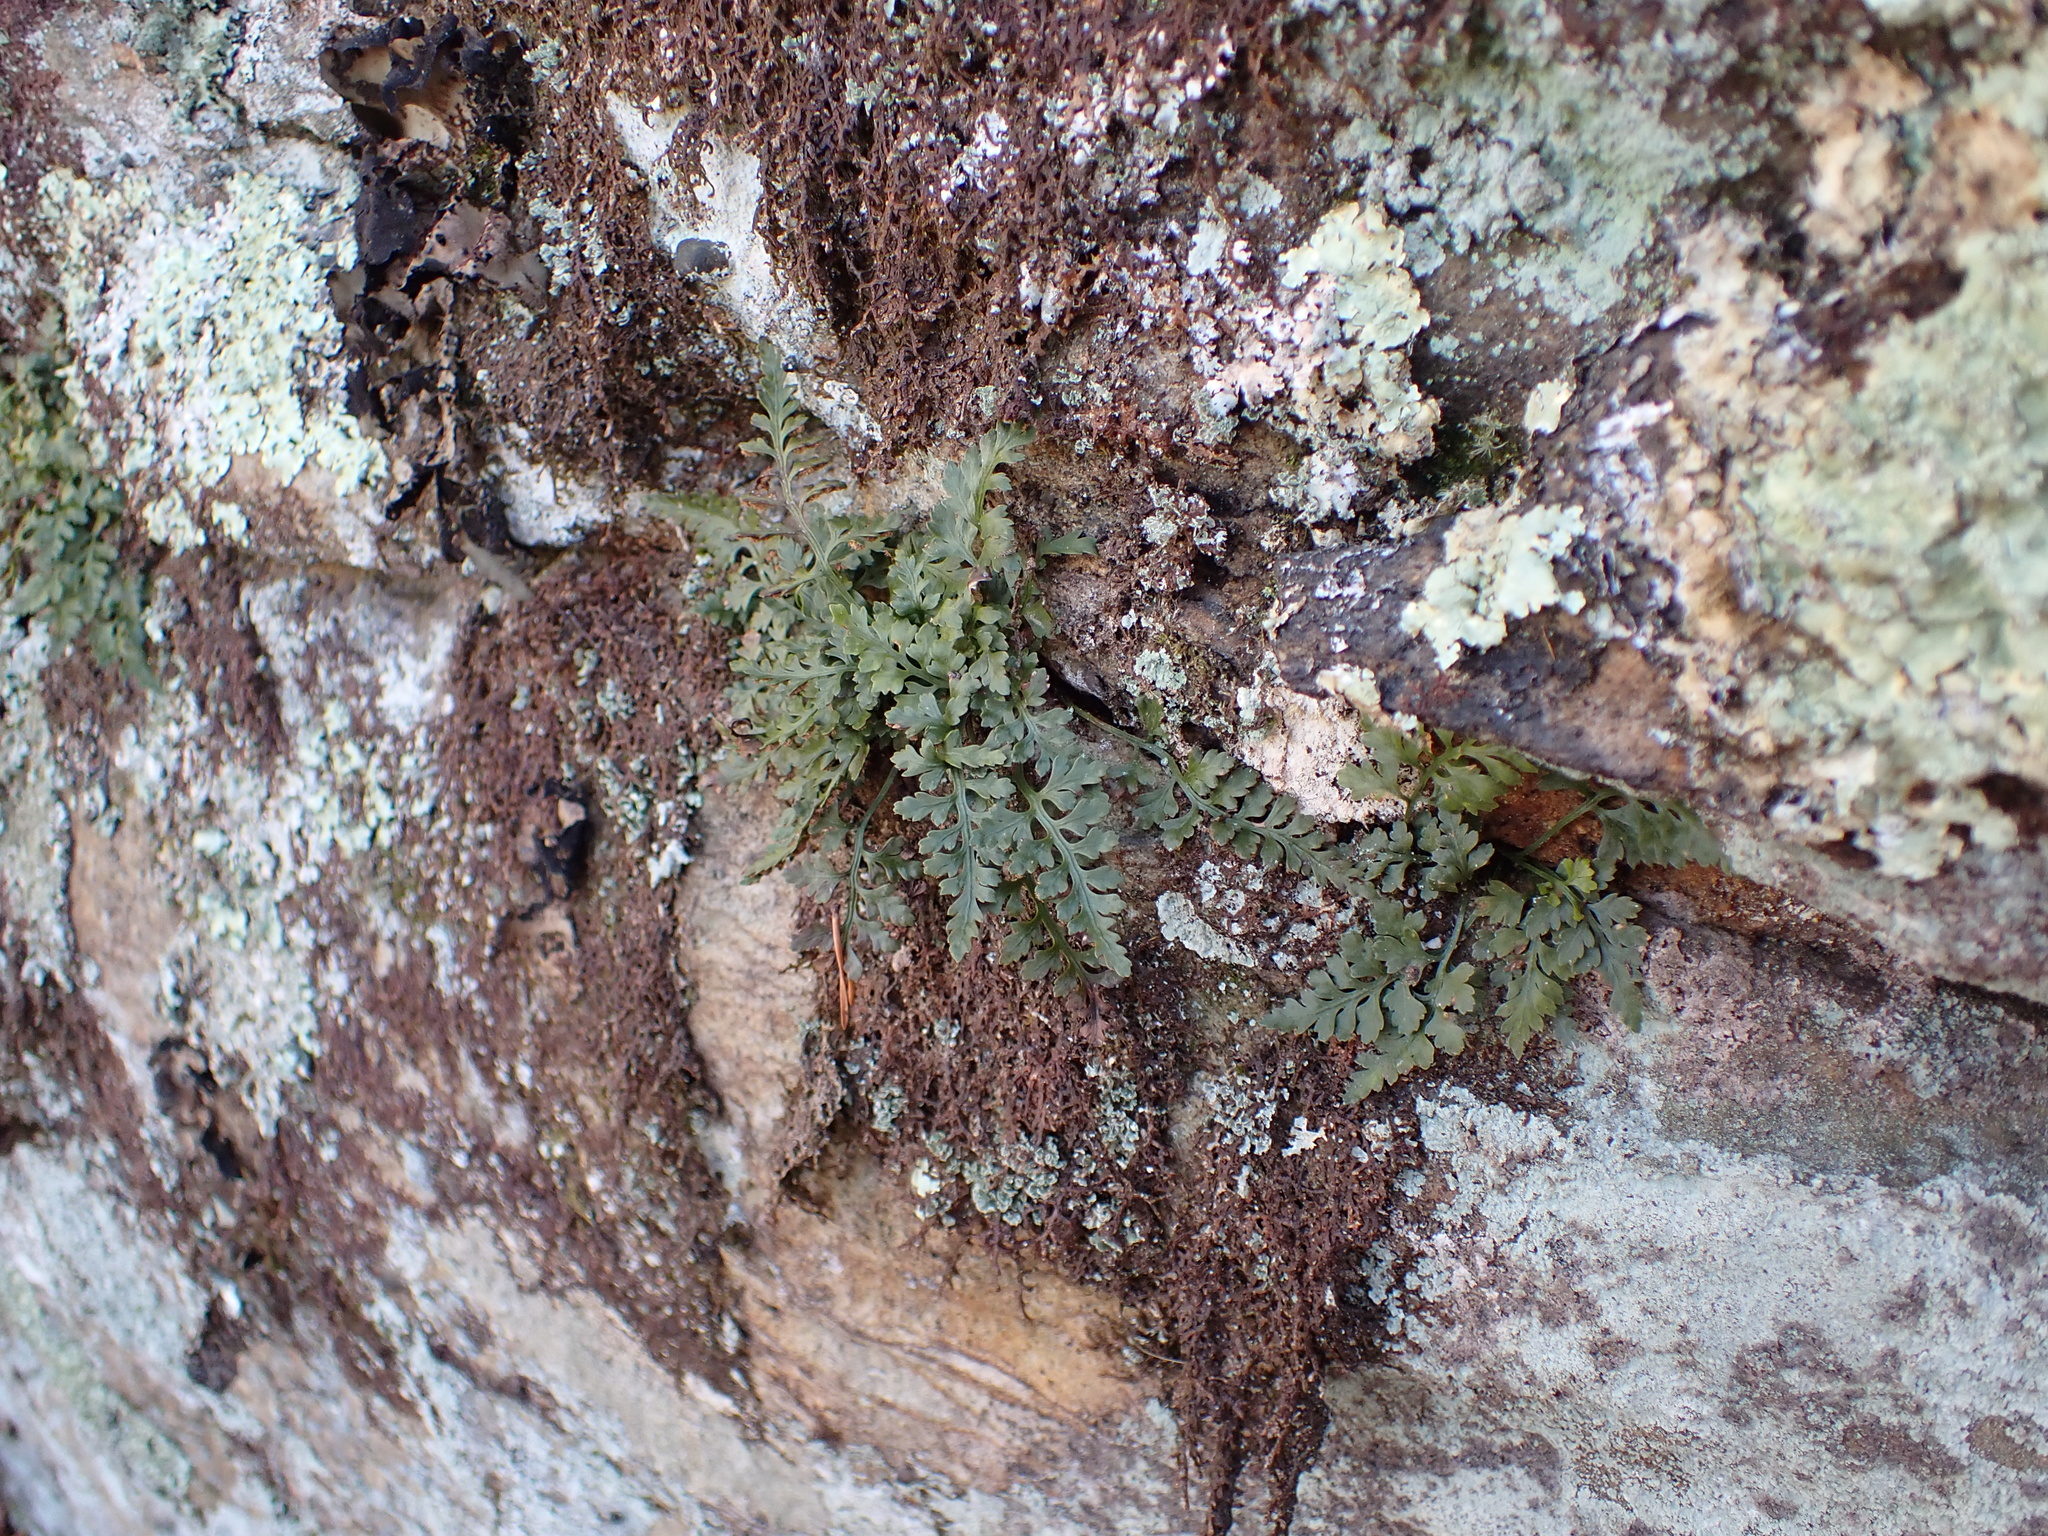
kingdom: Plantae
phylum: Tracheophyta
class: Polypodiopsida
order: Polypodiales
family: Aspleniaceae
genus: Asplenium
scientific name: Asplenium montanum
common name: Mountain spleenwort
